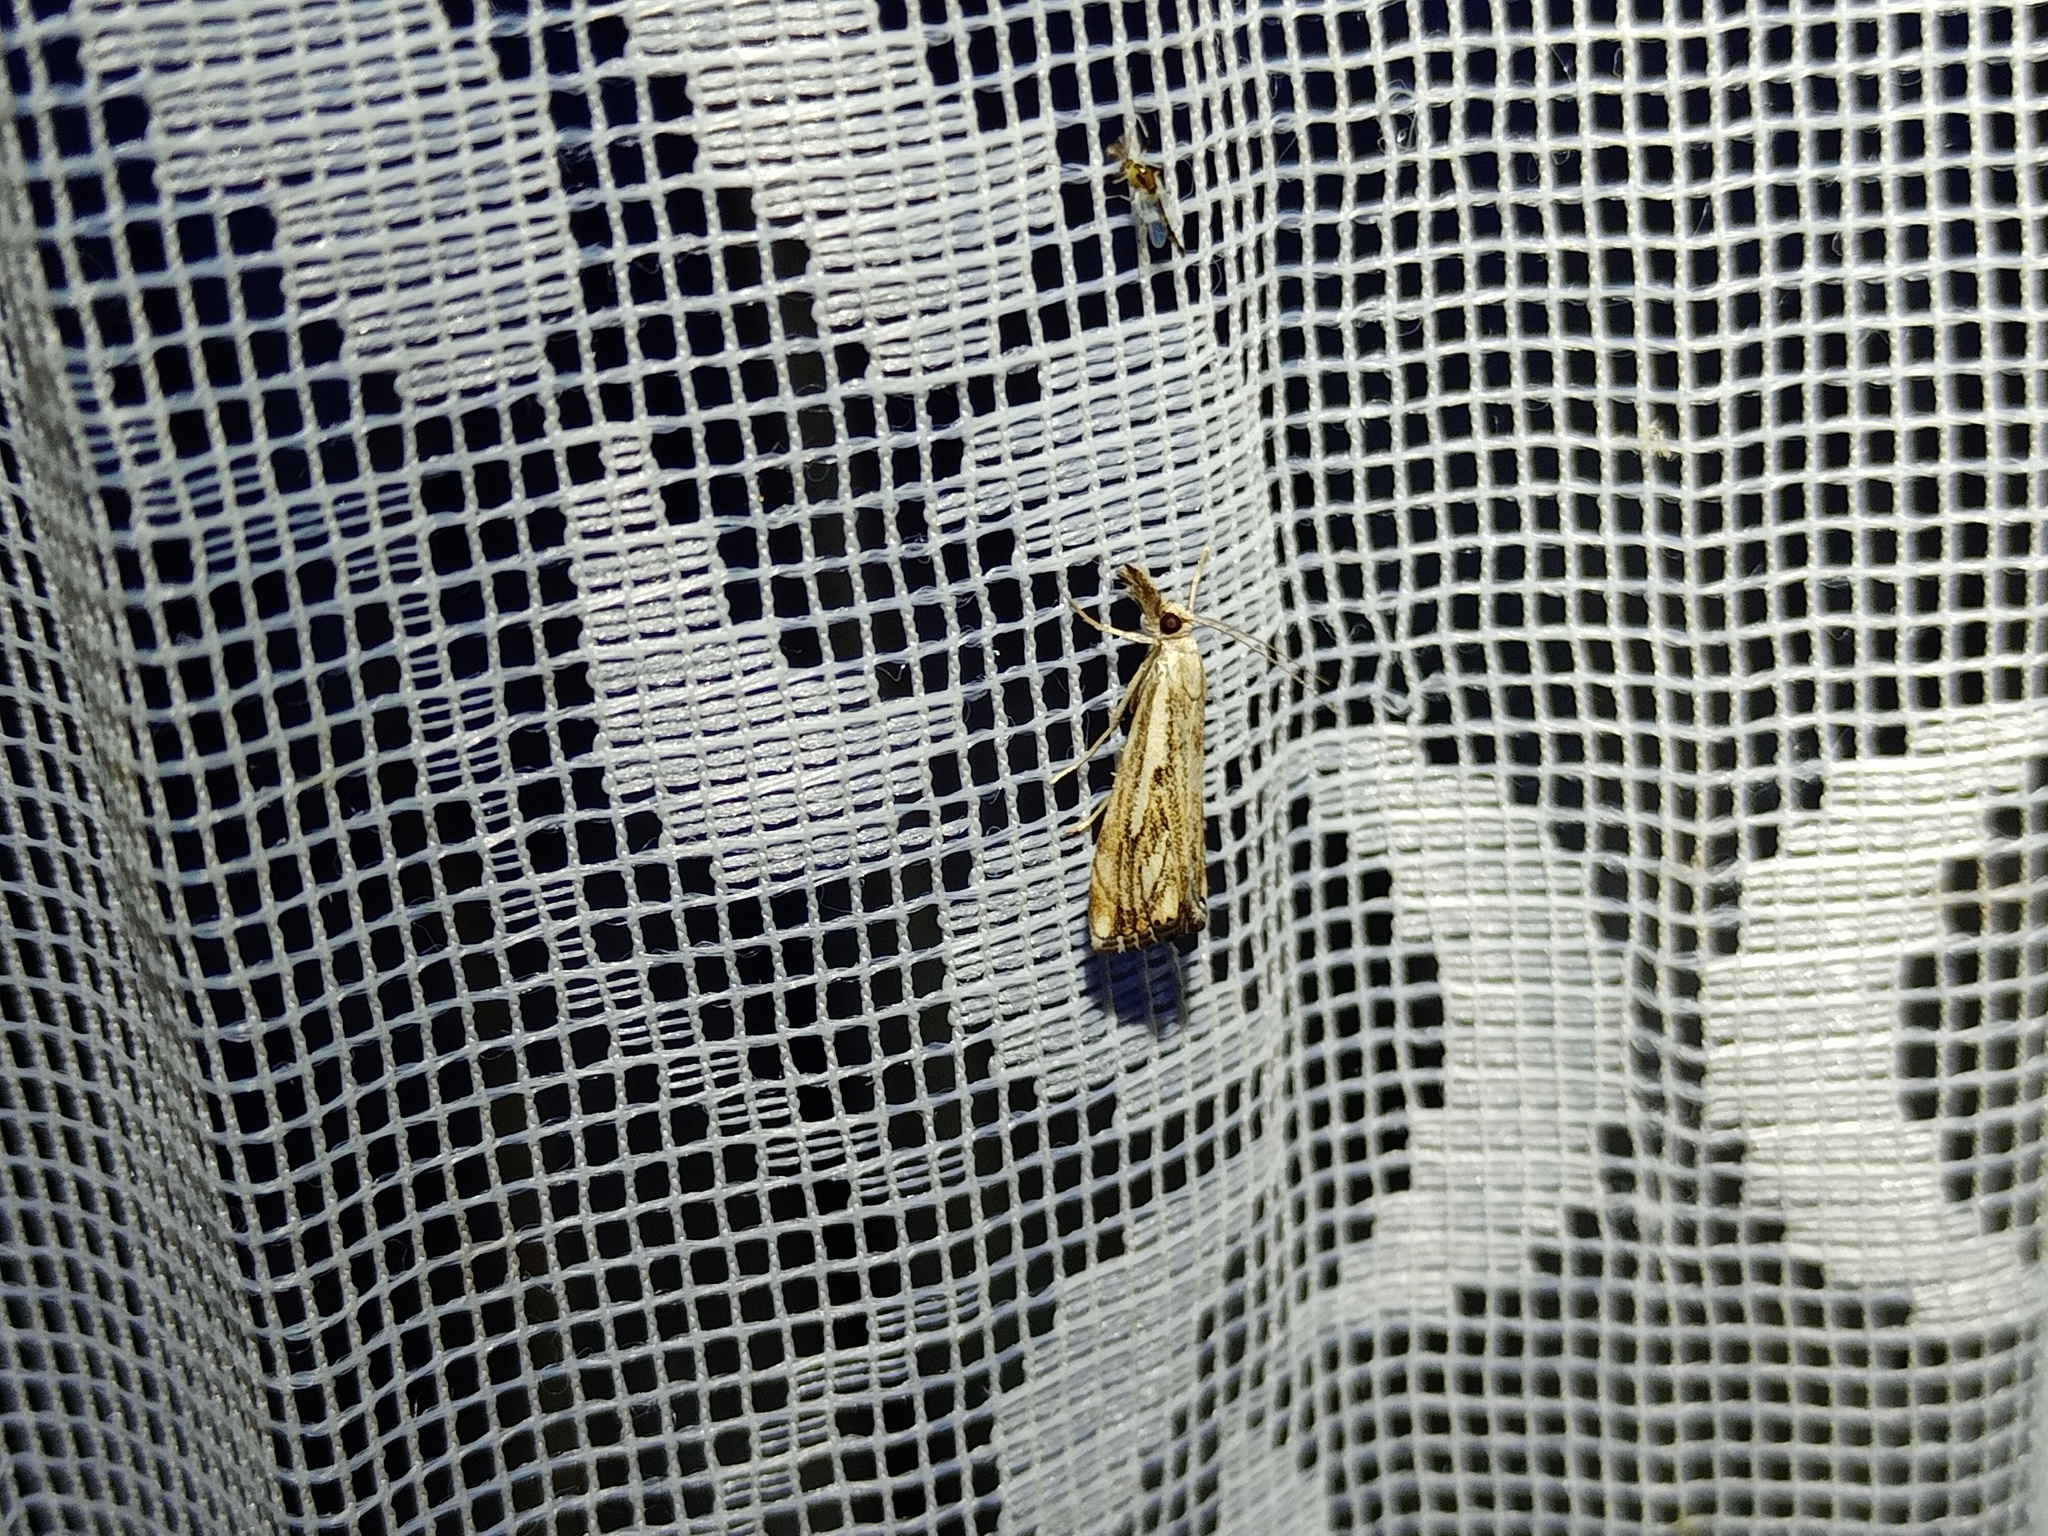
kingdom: Animalia
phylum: Arthropoda
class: Insecta
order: Lepidoptera
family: Crambidae
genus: Catoptria
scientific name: Catoptria falsella
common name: Chequered grass-veneer
